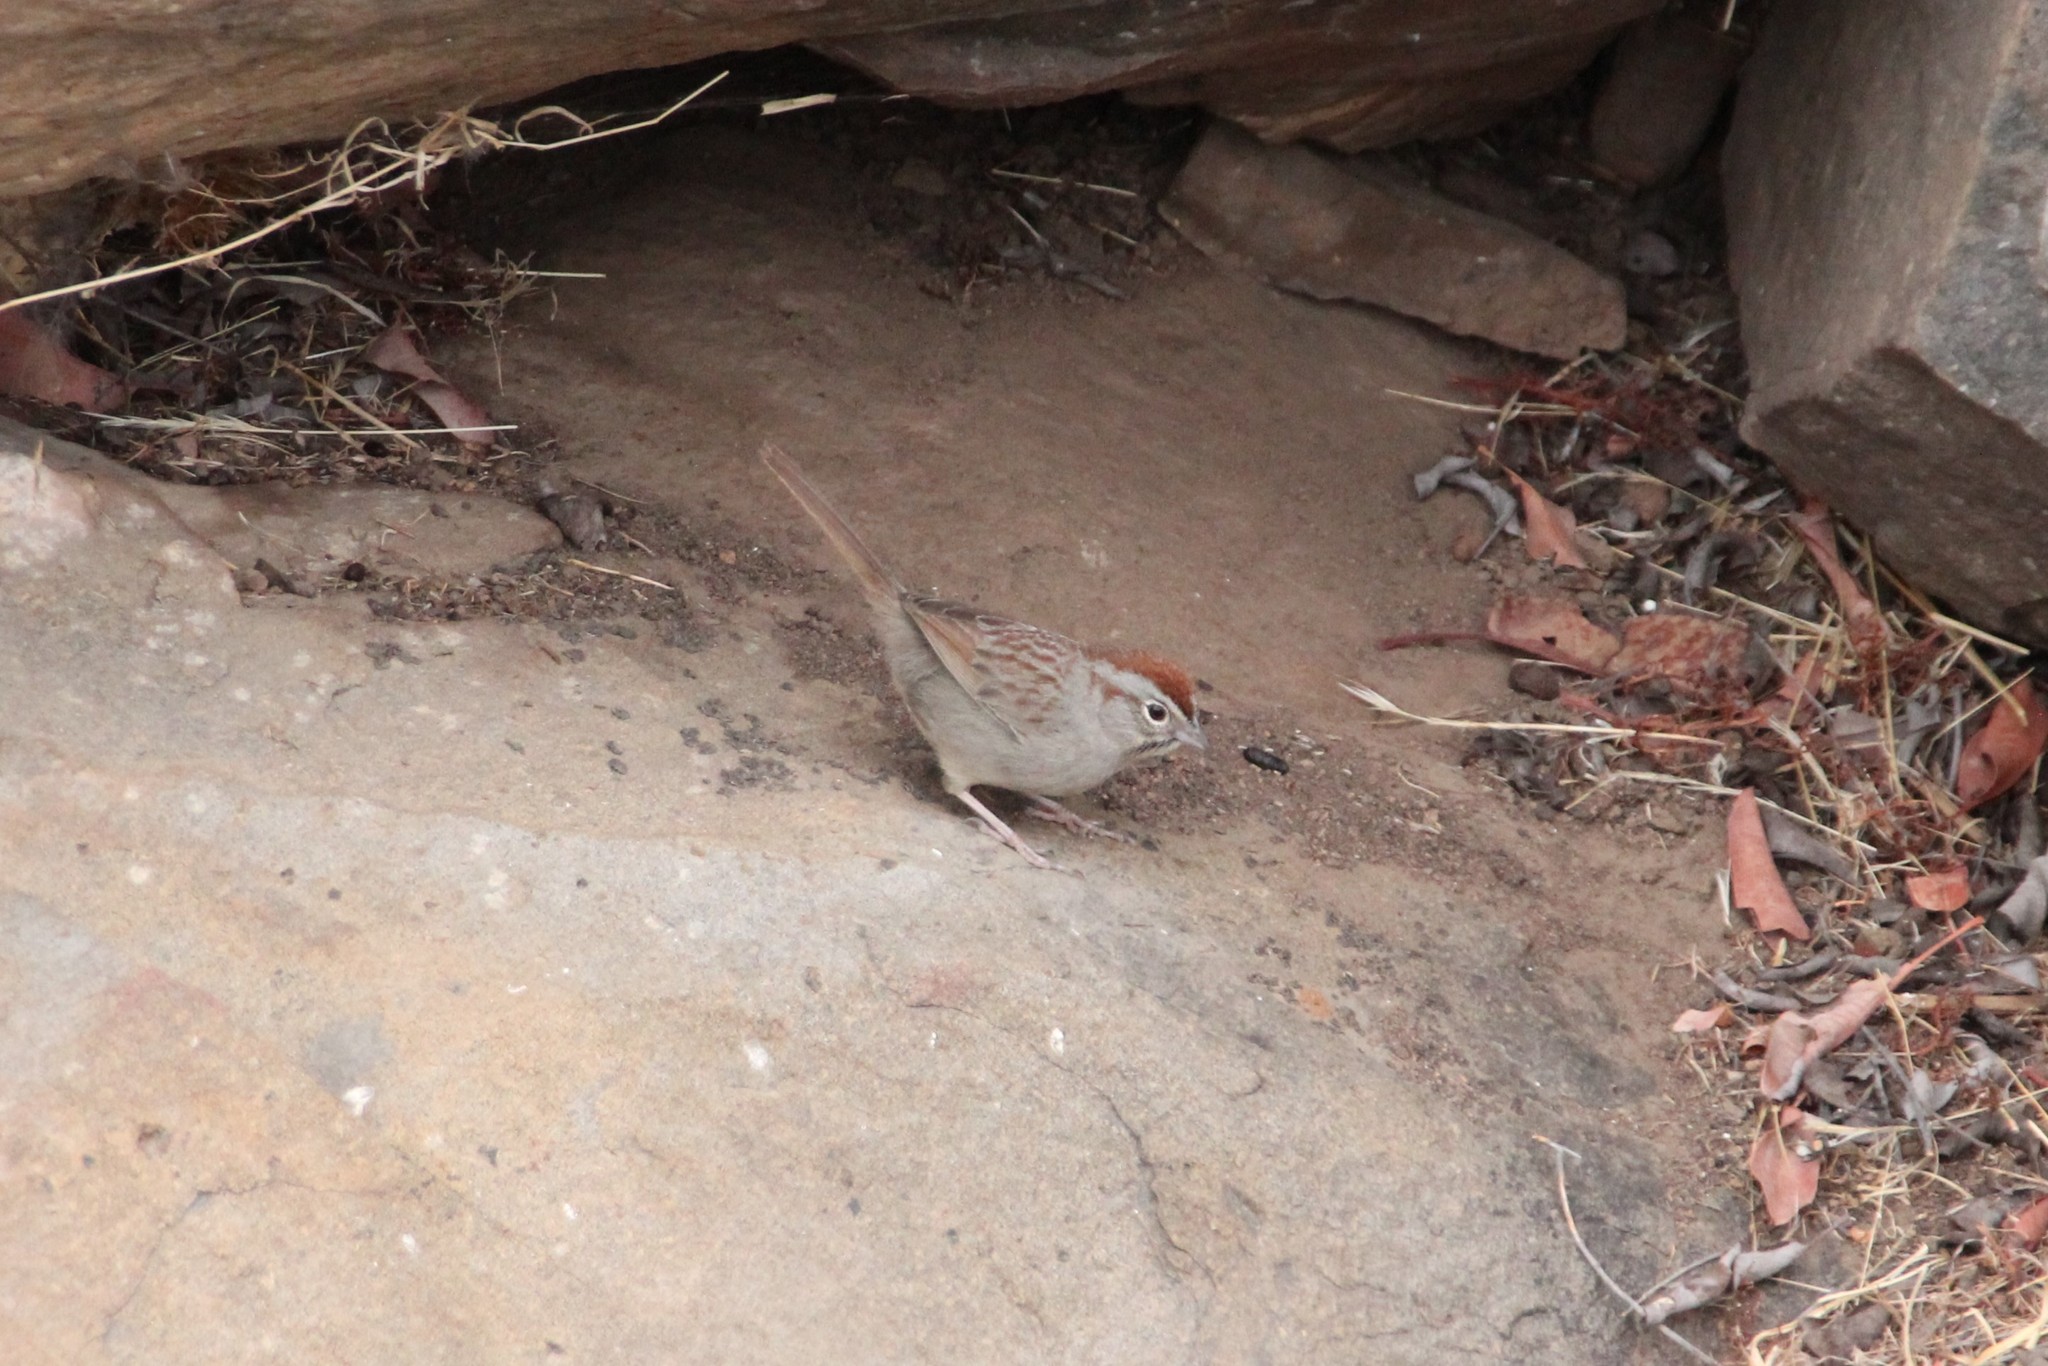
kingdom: Animalia
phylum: Chordata
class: Aves
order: Passeriformes
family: Passerellidae
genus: Aimophila
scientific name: Aimophila ruficeps
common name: Rufous-crowned sparrow
